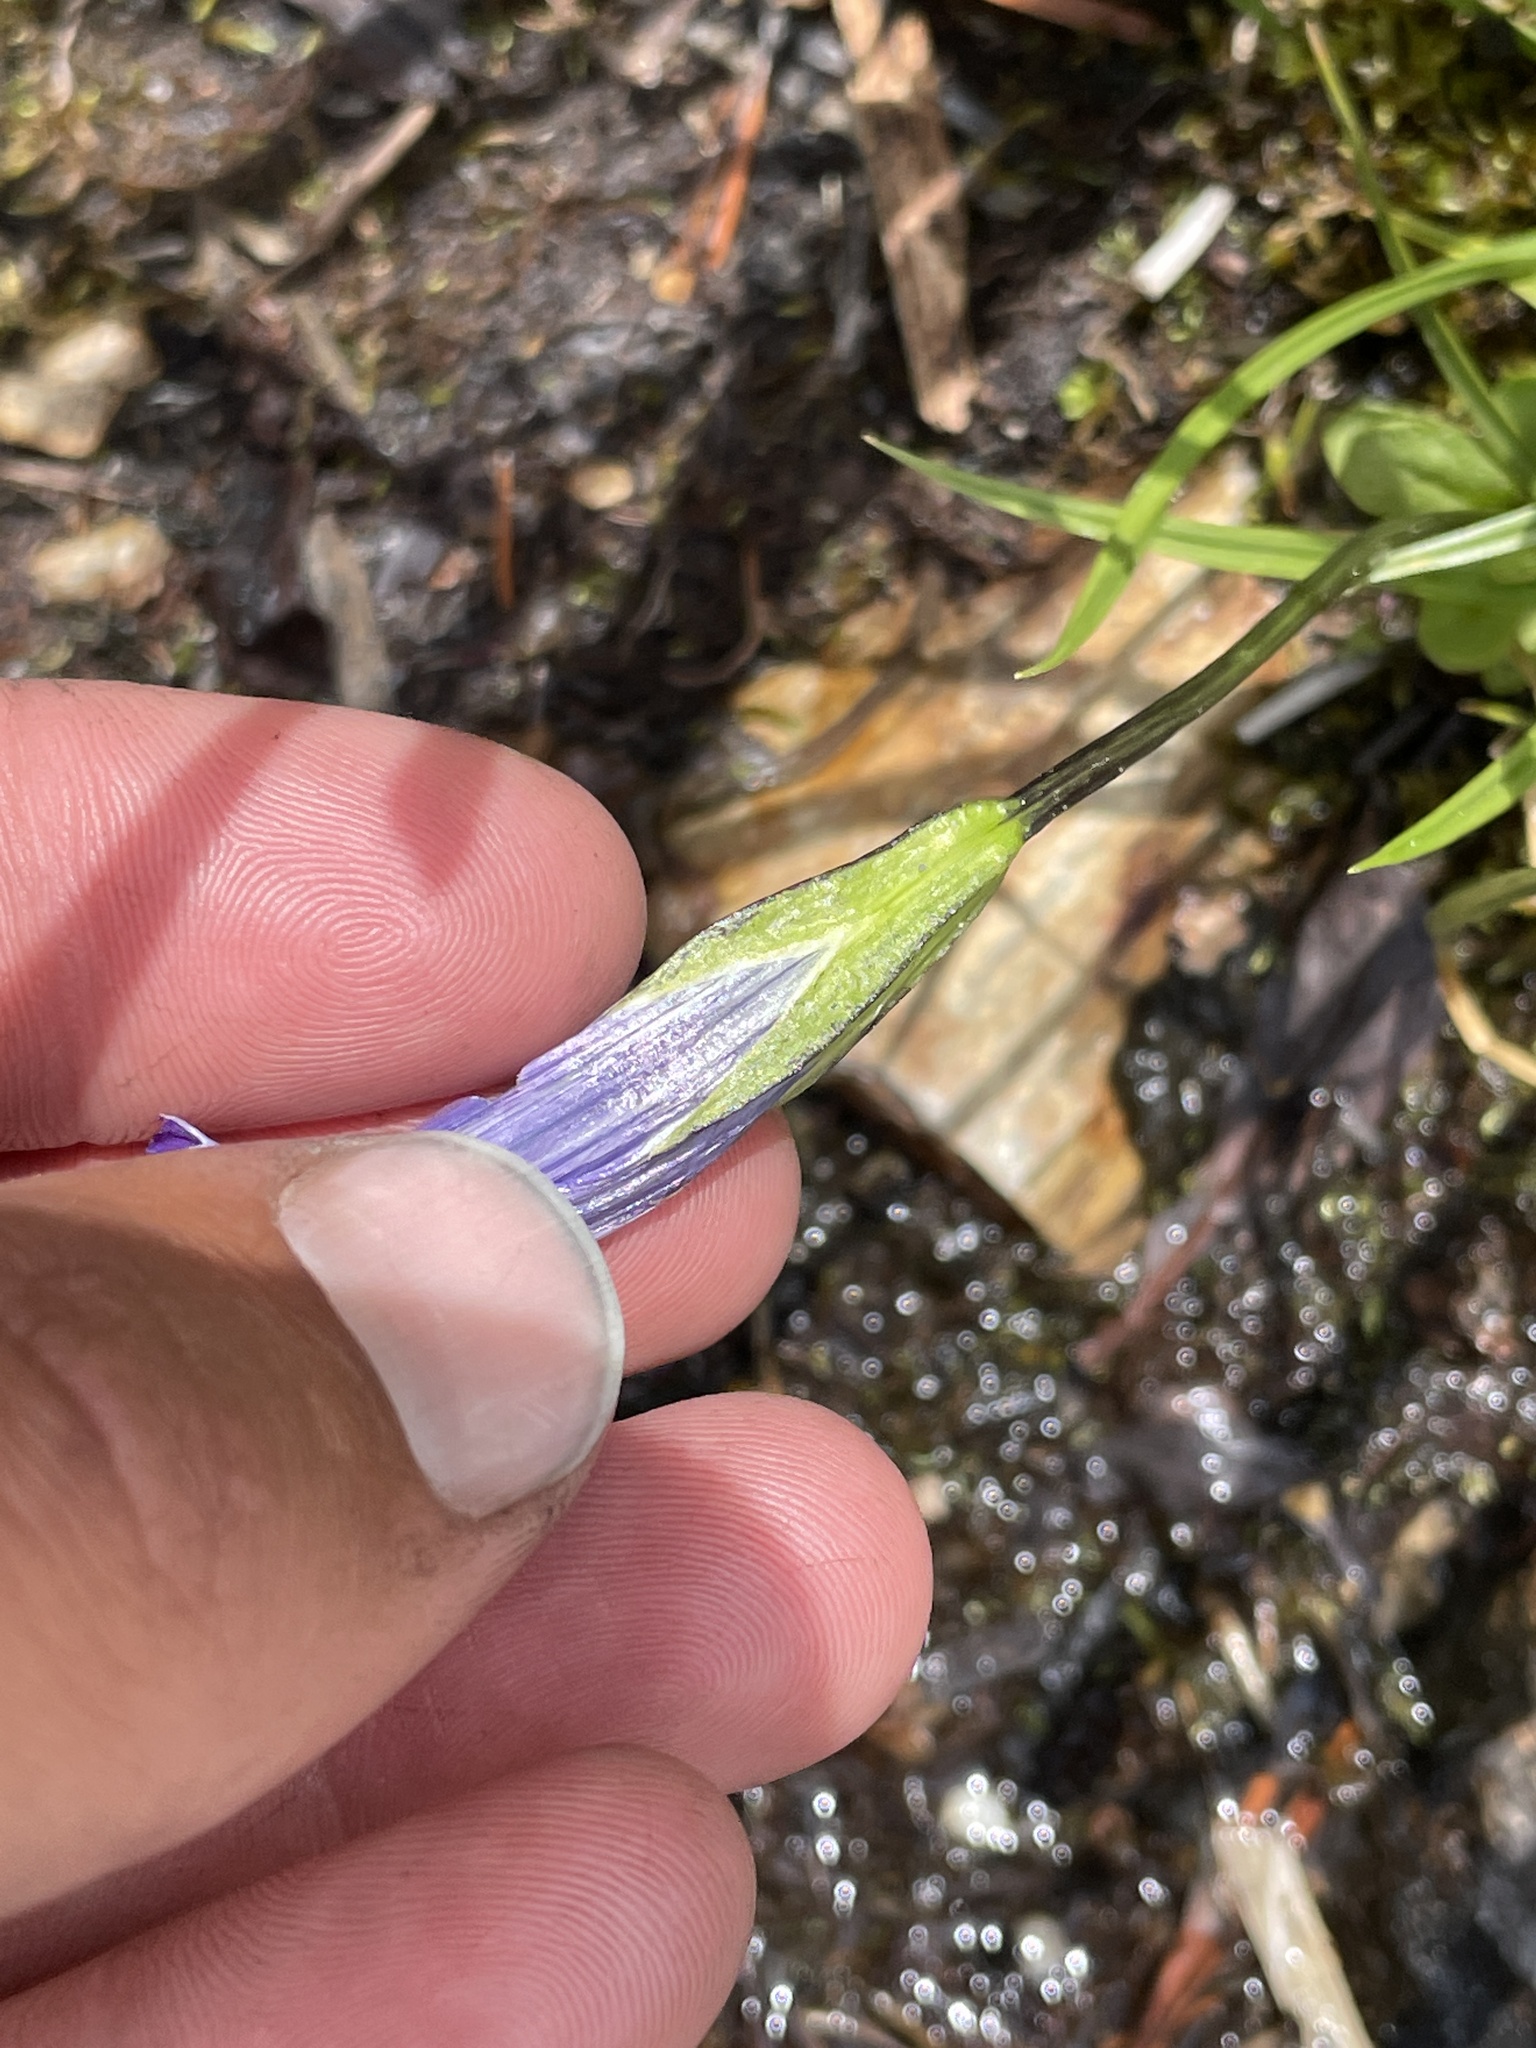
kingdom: Plantae
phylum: Tracheophyta
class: Magnoliopsida
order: Gentianales
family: Gentianaceae
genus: Gentianopsis
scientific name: Gentianopsis holopetala
